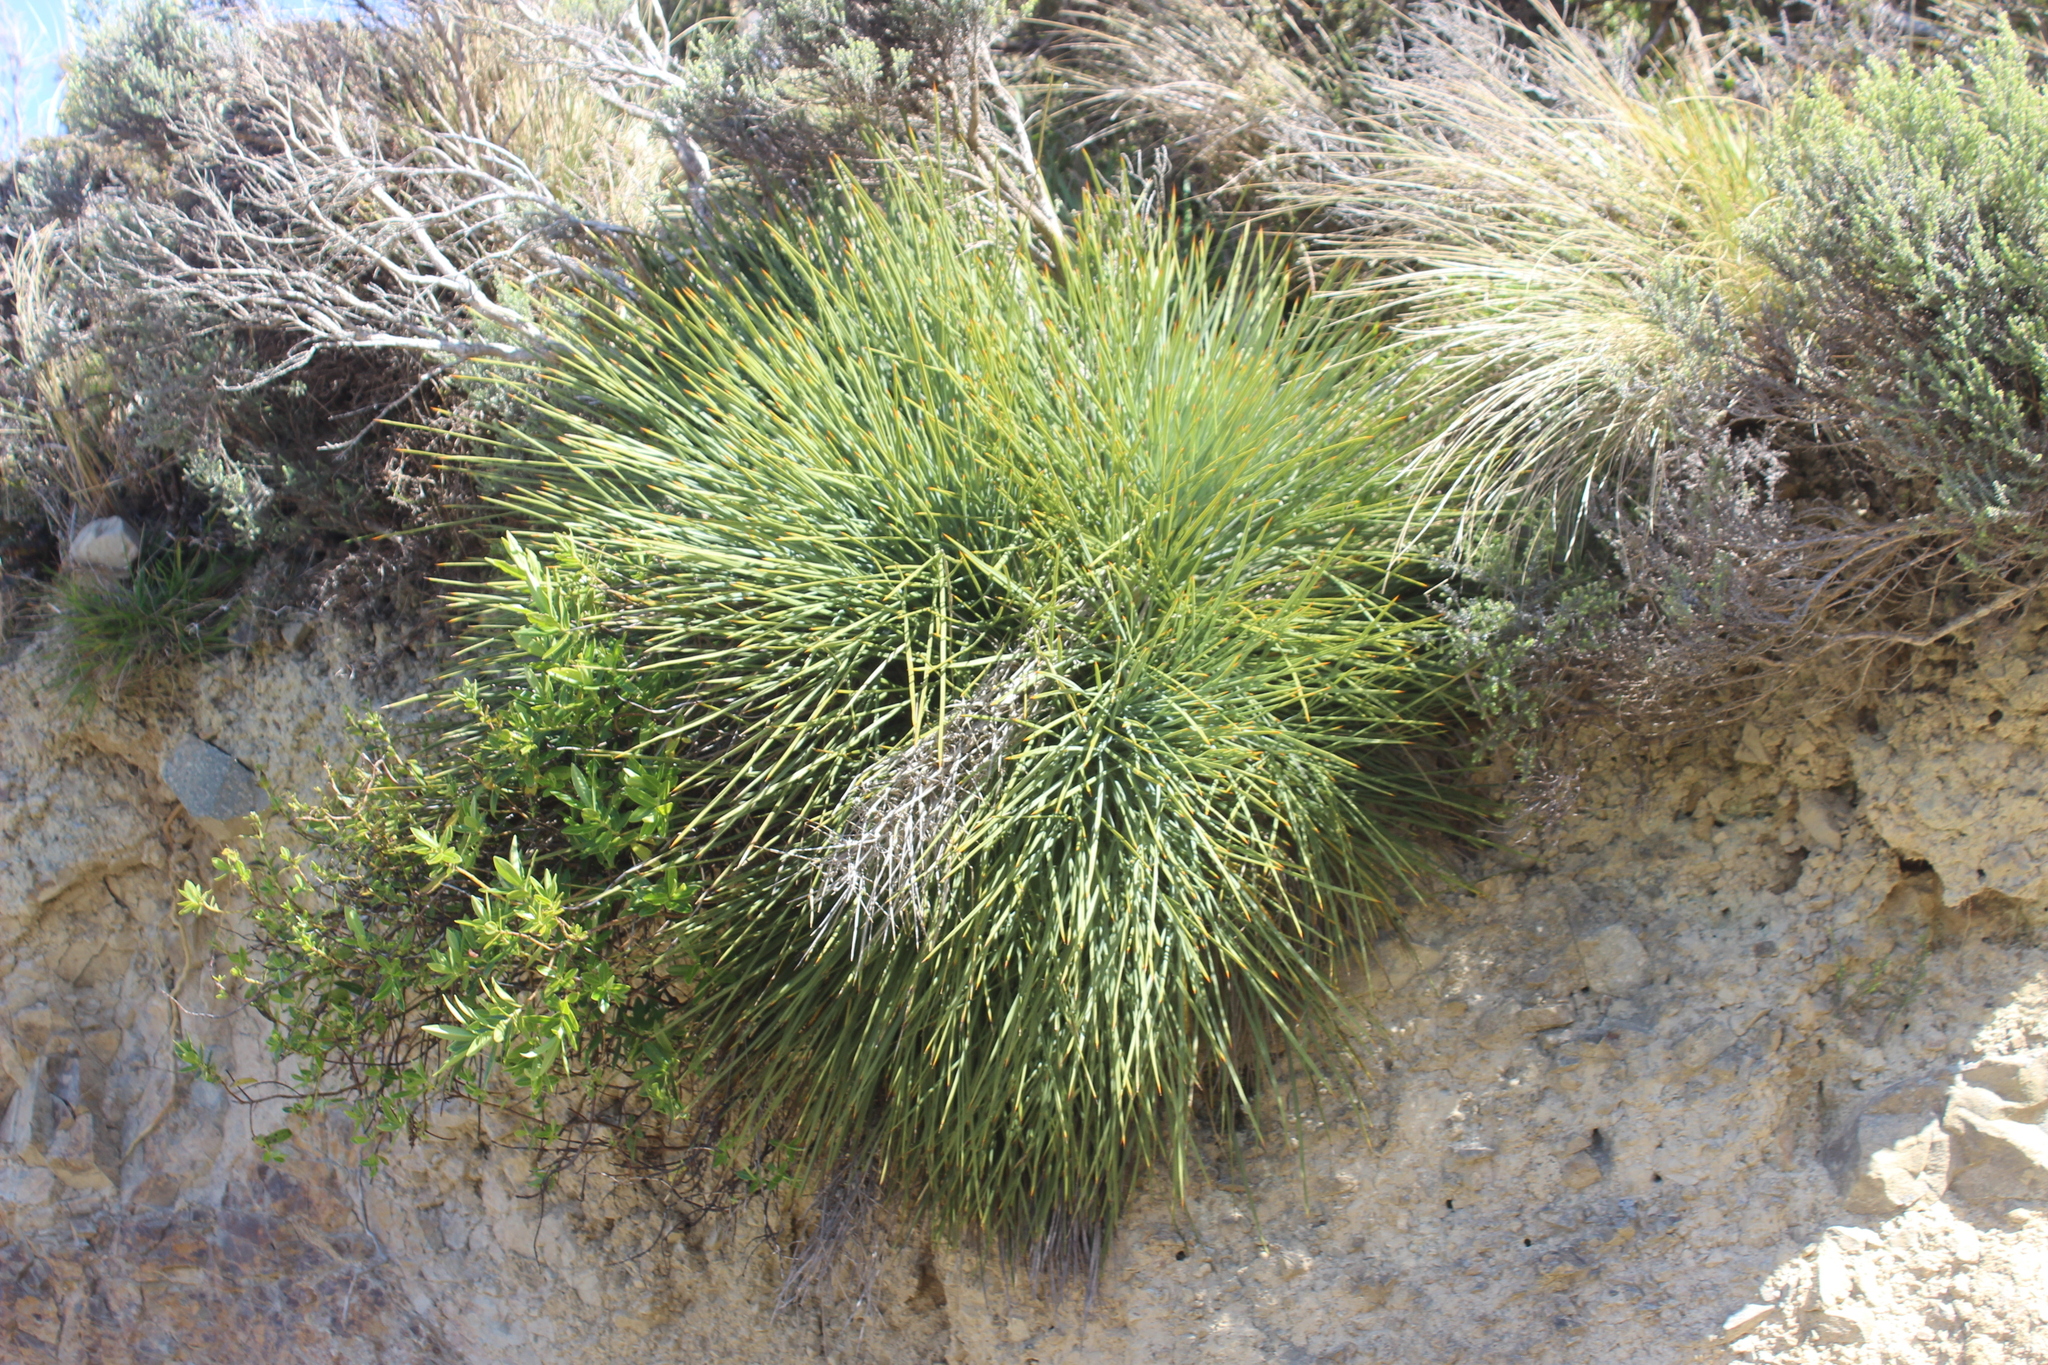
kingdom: Plantae
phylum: Tracheophyta
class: Magnoliopsida
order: Apiales
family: Apiaceae
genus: Aciphylla
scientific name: Aciphylla squarrosa
